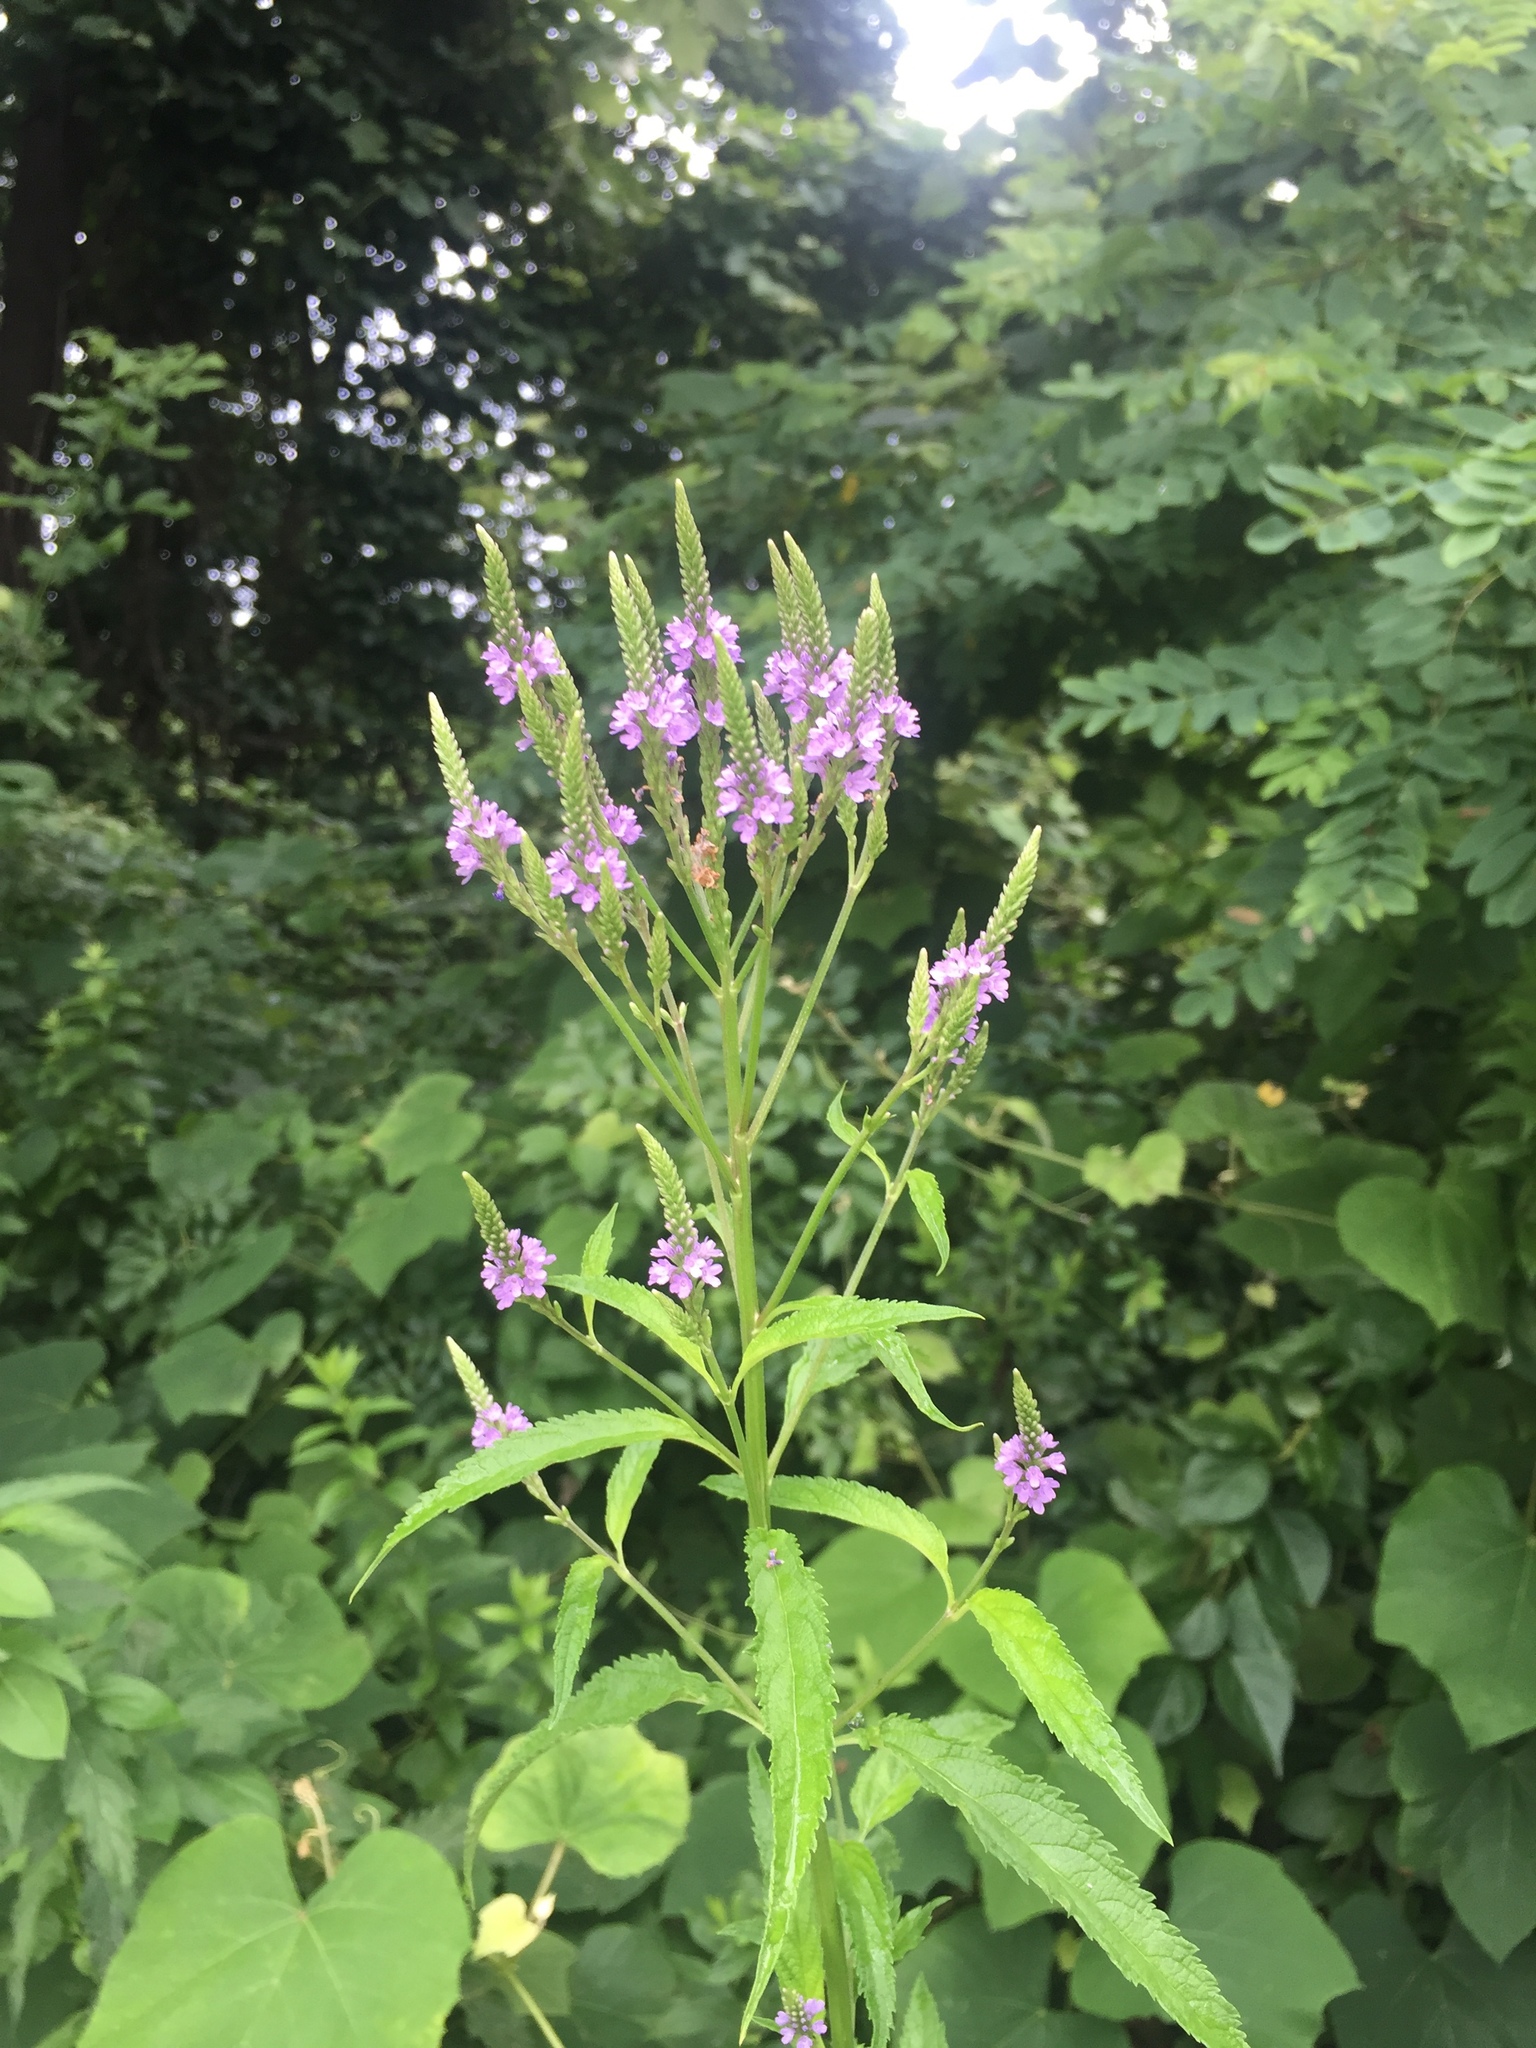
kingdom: Plantae
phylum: Tracheophyta
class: Magnoliopsida
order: Lamiales
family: Verbenaceae
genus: Verbena
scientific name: Verbena hastata
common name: American blue vervain
